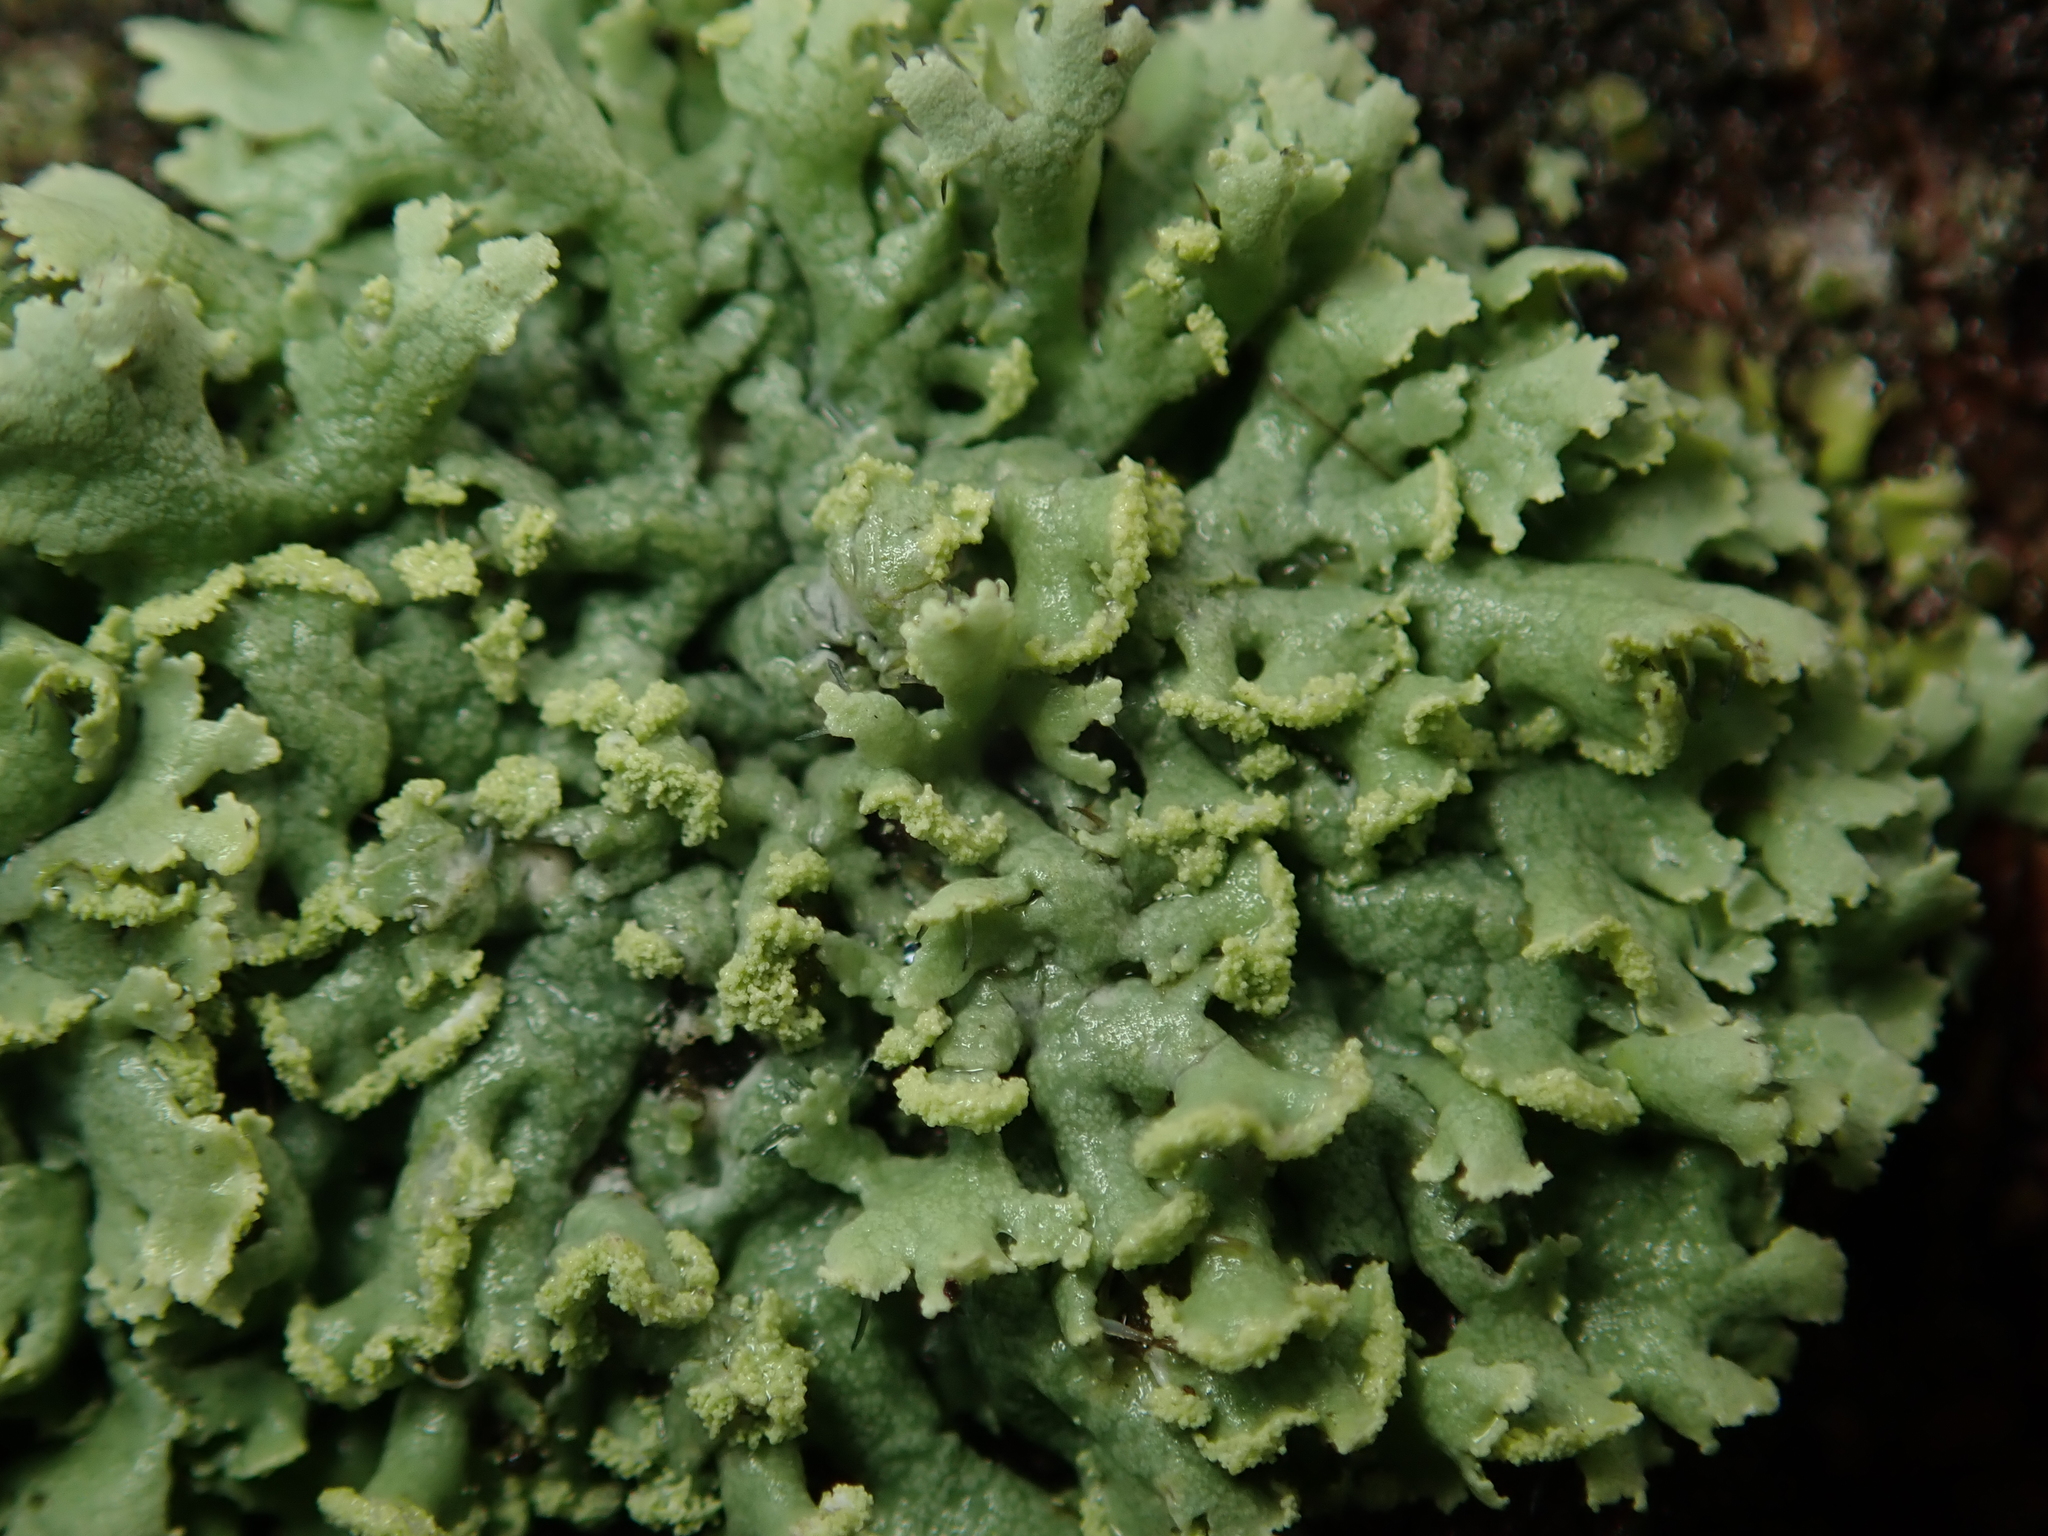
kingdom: Fungi
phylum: Ascomycota
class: Lecanoromycetes
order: Caliciales
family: Physciaceae
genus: Physcia
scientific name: Physcia dubia
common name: Powder-tipped rosette lichen
